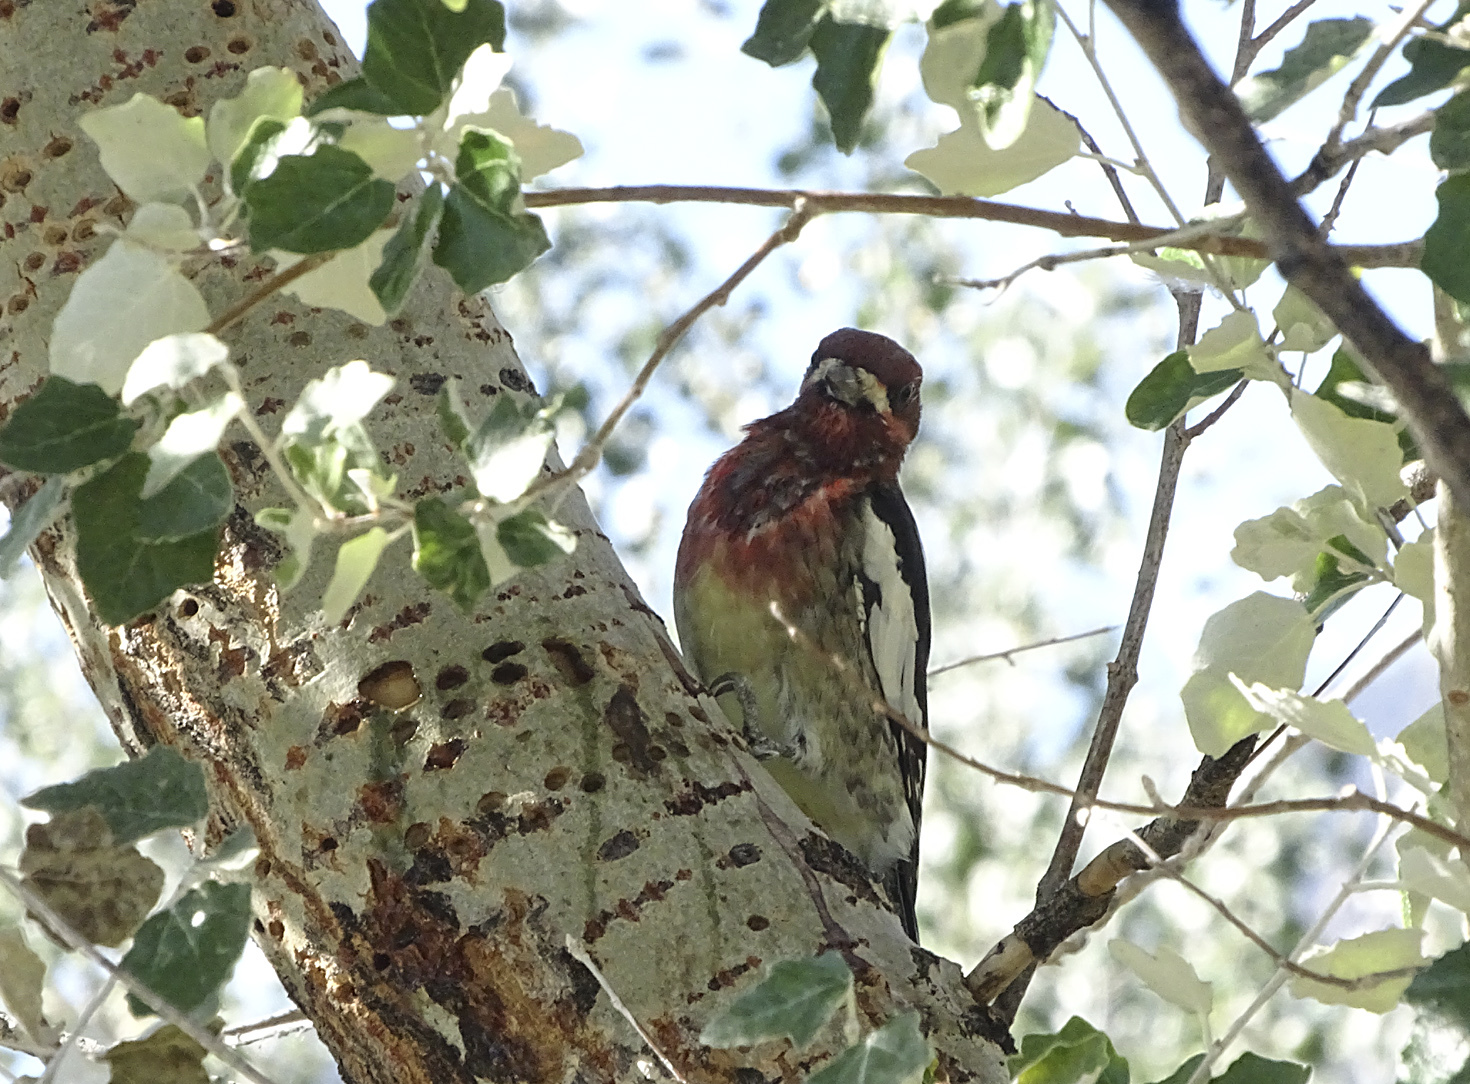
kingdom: Animalia
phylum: Chordata
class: Aves
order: Piciformes
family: Picidae
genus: Sphyrapicus
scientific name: Sphyrapicus
